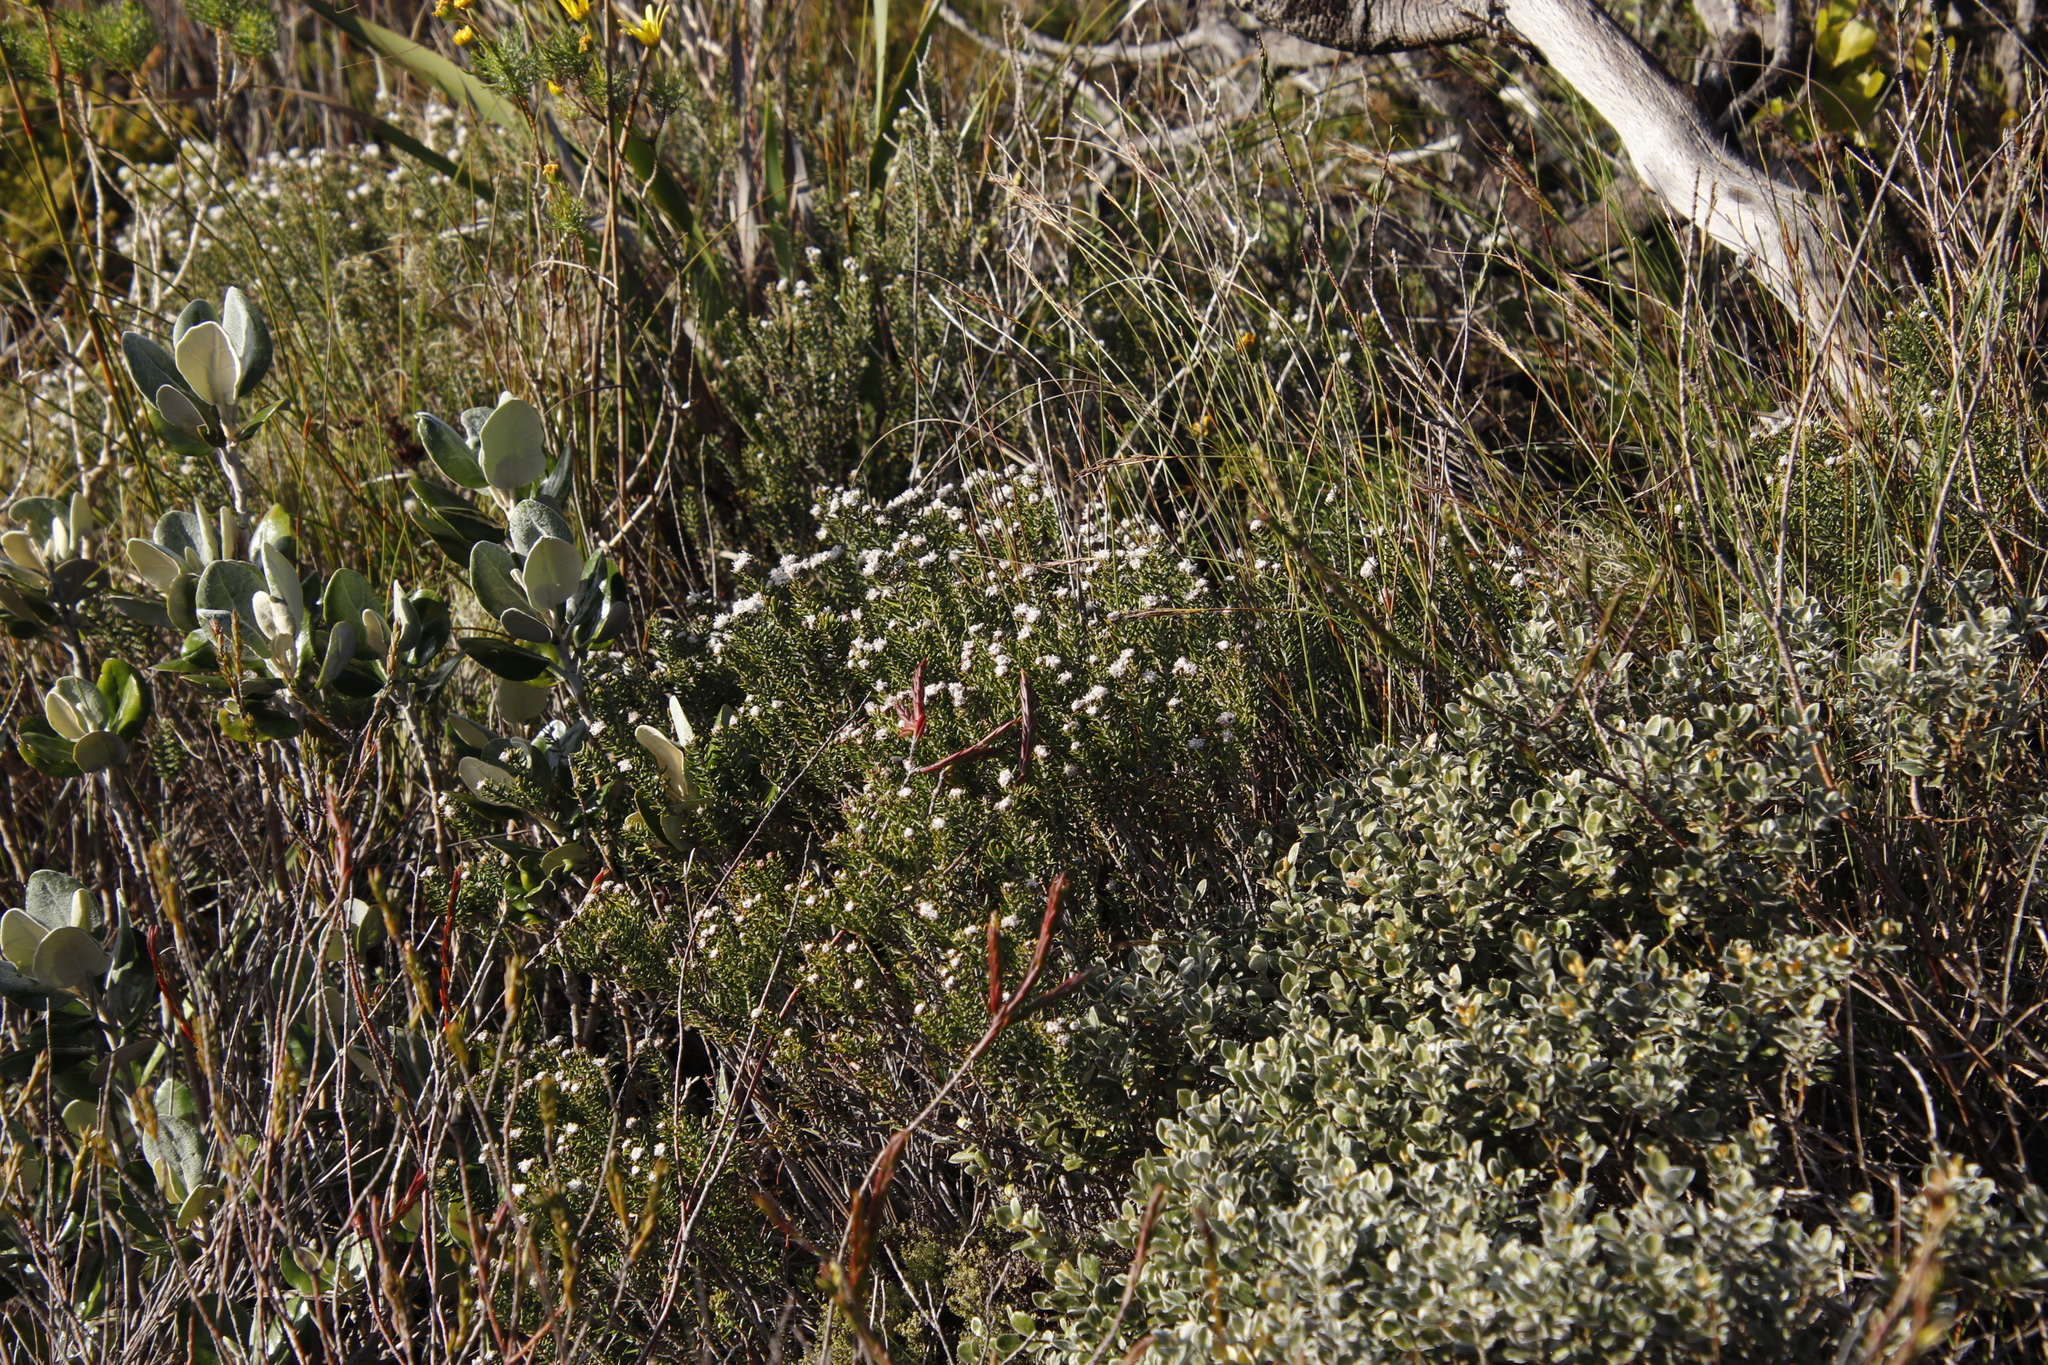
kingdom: Plantae
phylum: Tracheophyta
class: Magnoliopsida
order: Rosales
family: Rhamnaceae
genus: Trichocephalus
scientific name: Trichocephalus stipularis
